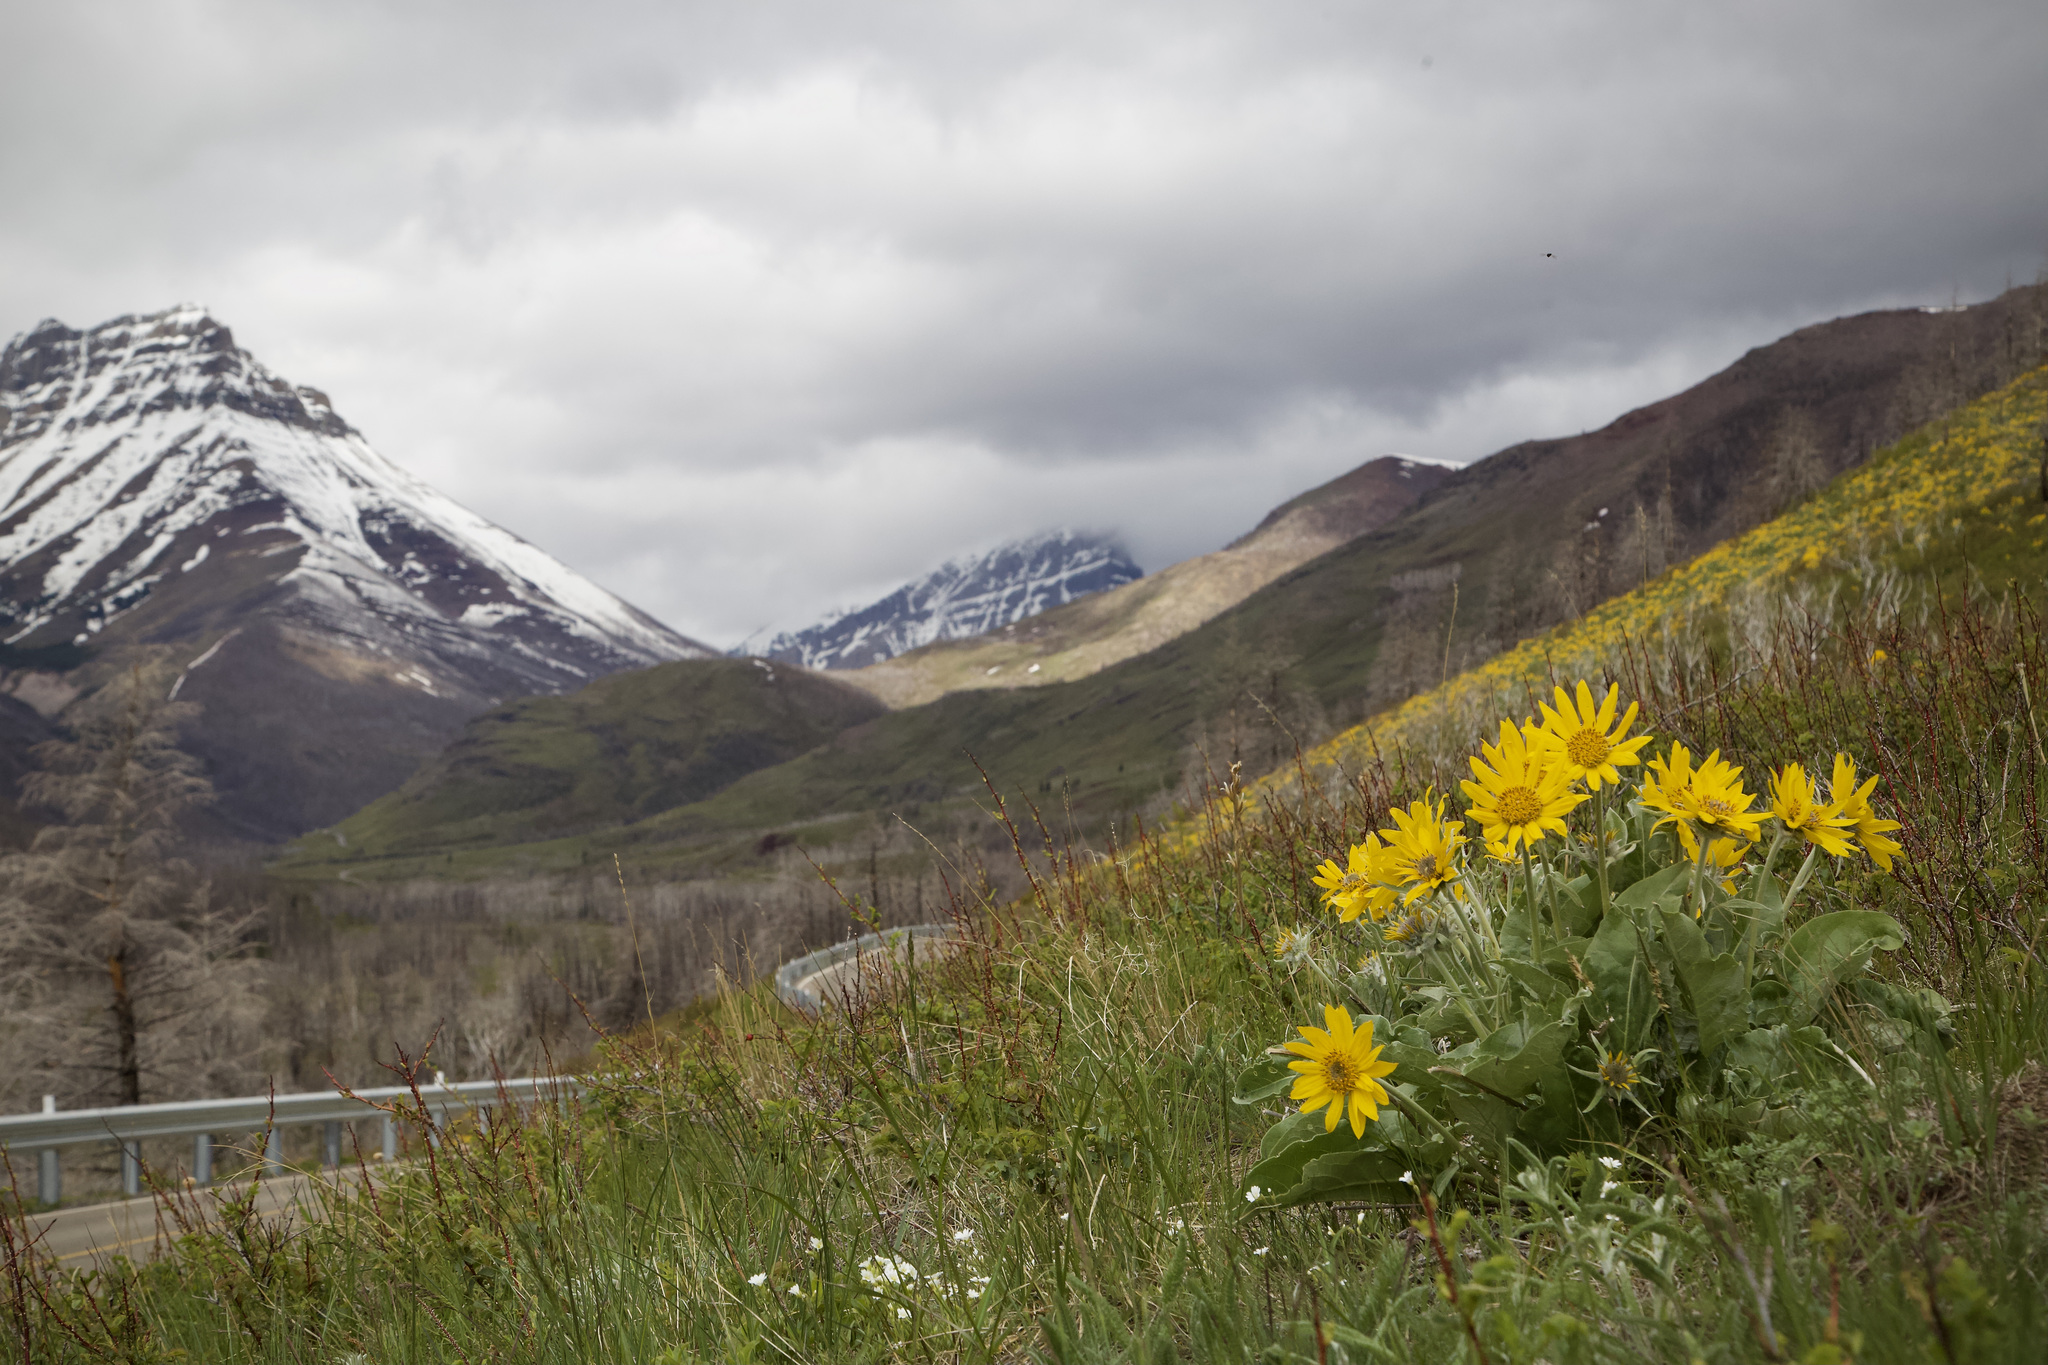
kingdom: Plantae
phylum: Tracheophyta
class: Magnoliopsida
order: Asterales
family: Asteraceae
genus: Wyethia
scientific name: Wyethia sagittata
